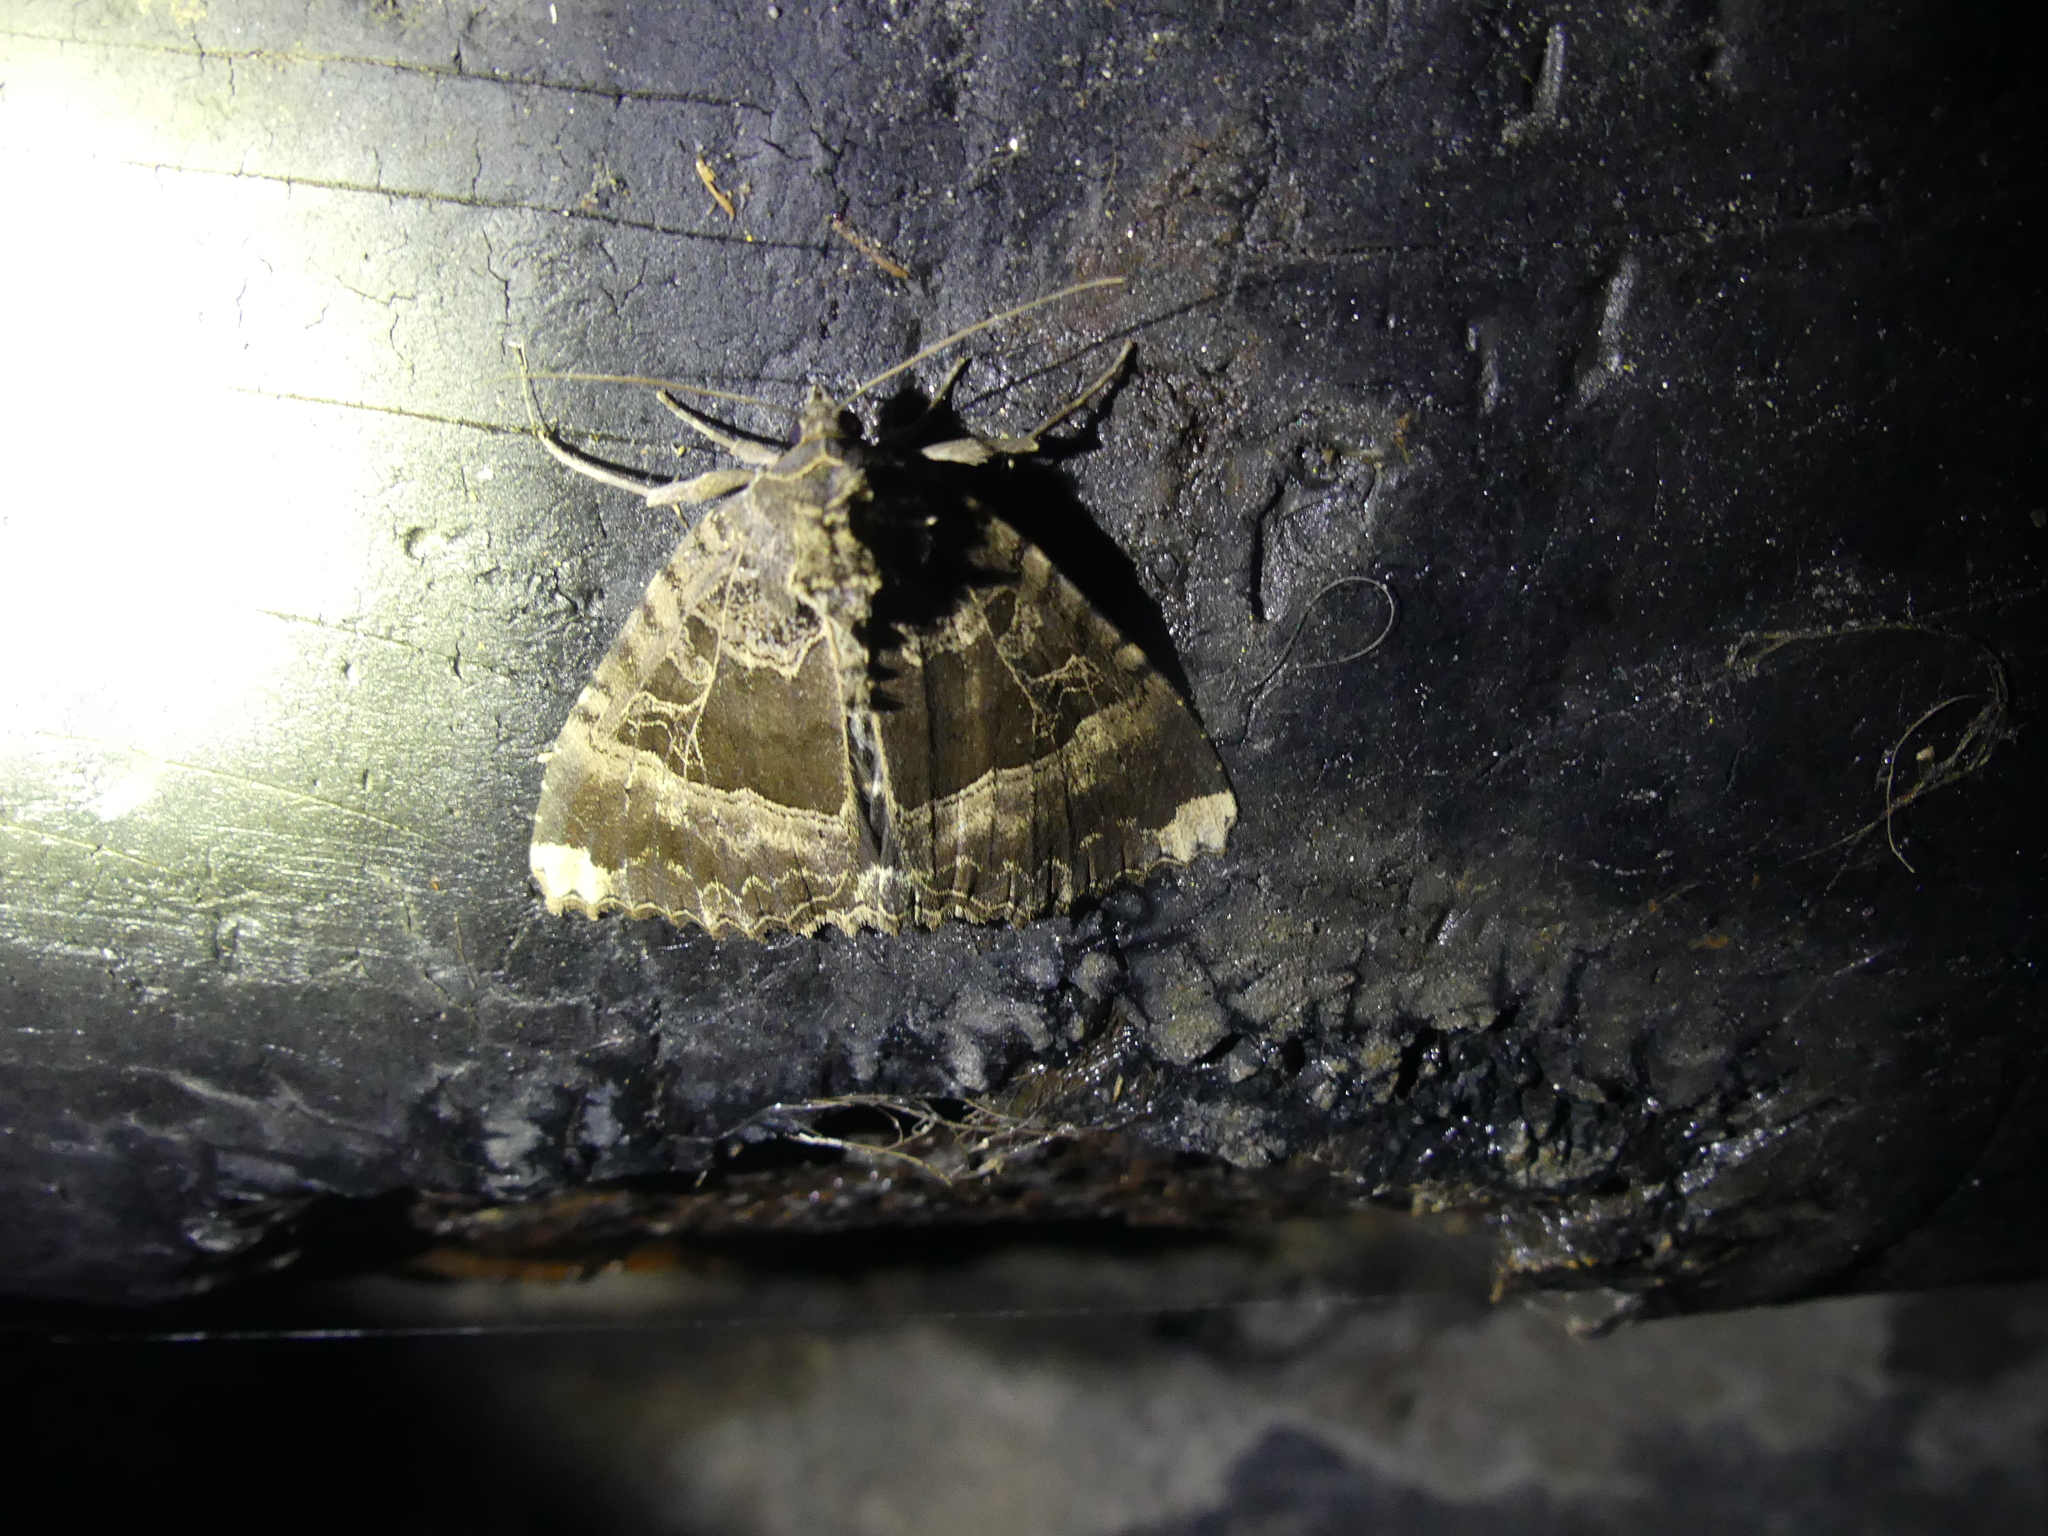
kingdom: Animalia
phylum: Arthropoda
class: Insecta
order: Lepidoptera
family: Noctuidae
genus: Mormo
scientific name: Mormo maura
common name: Old lady
